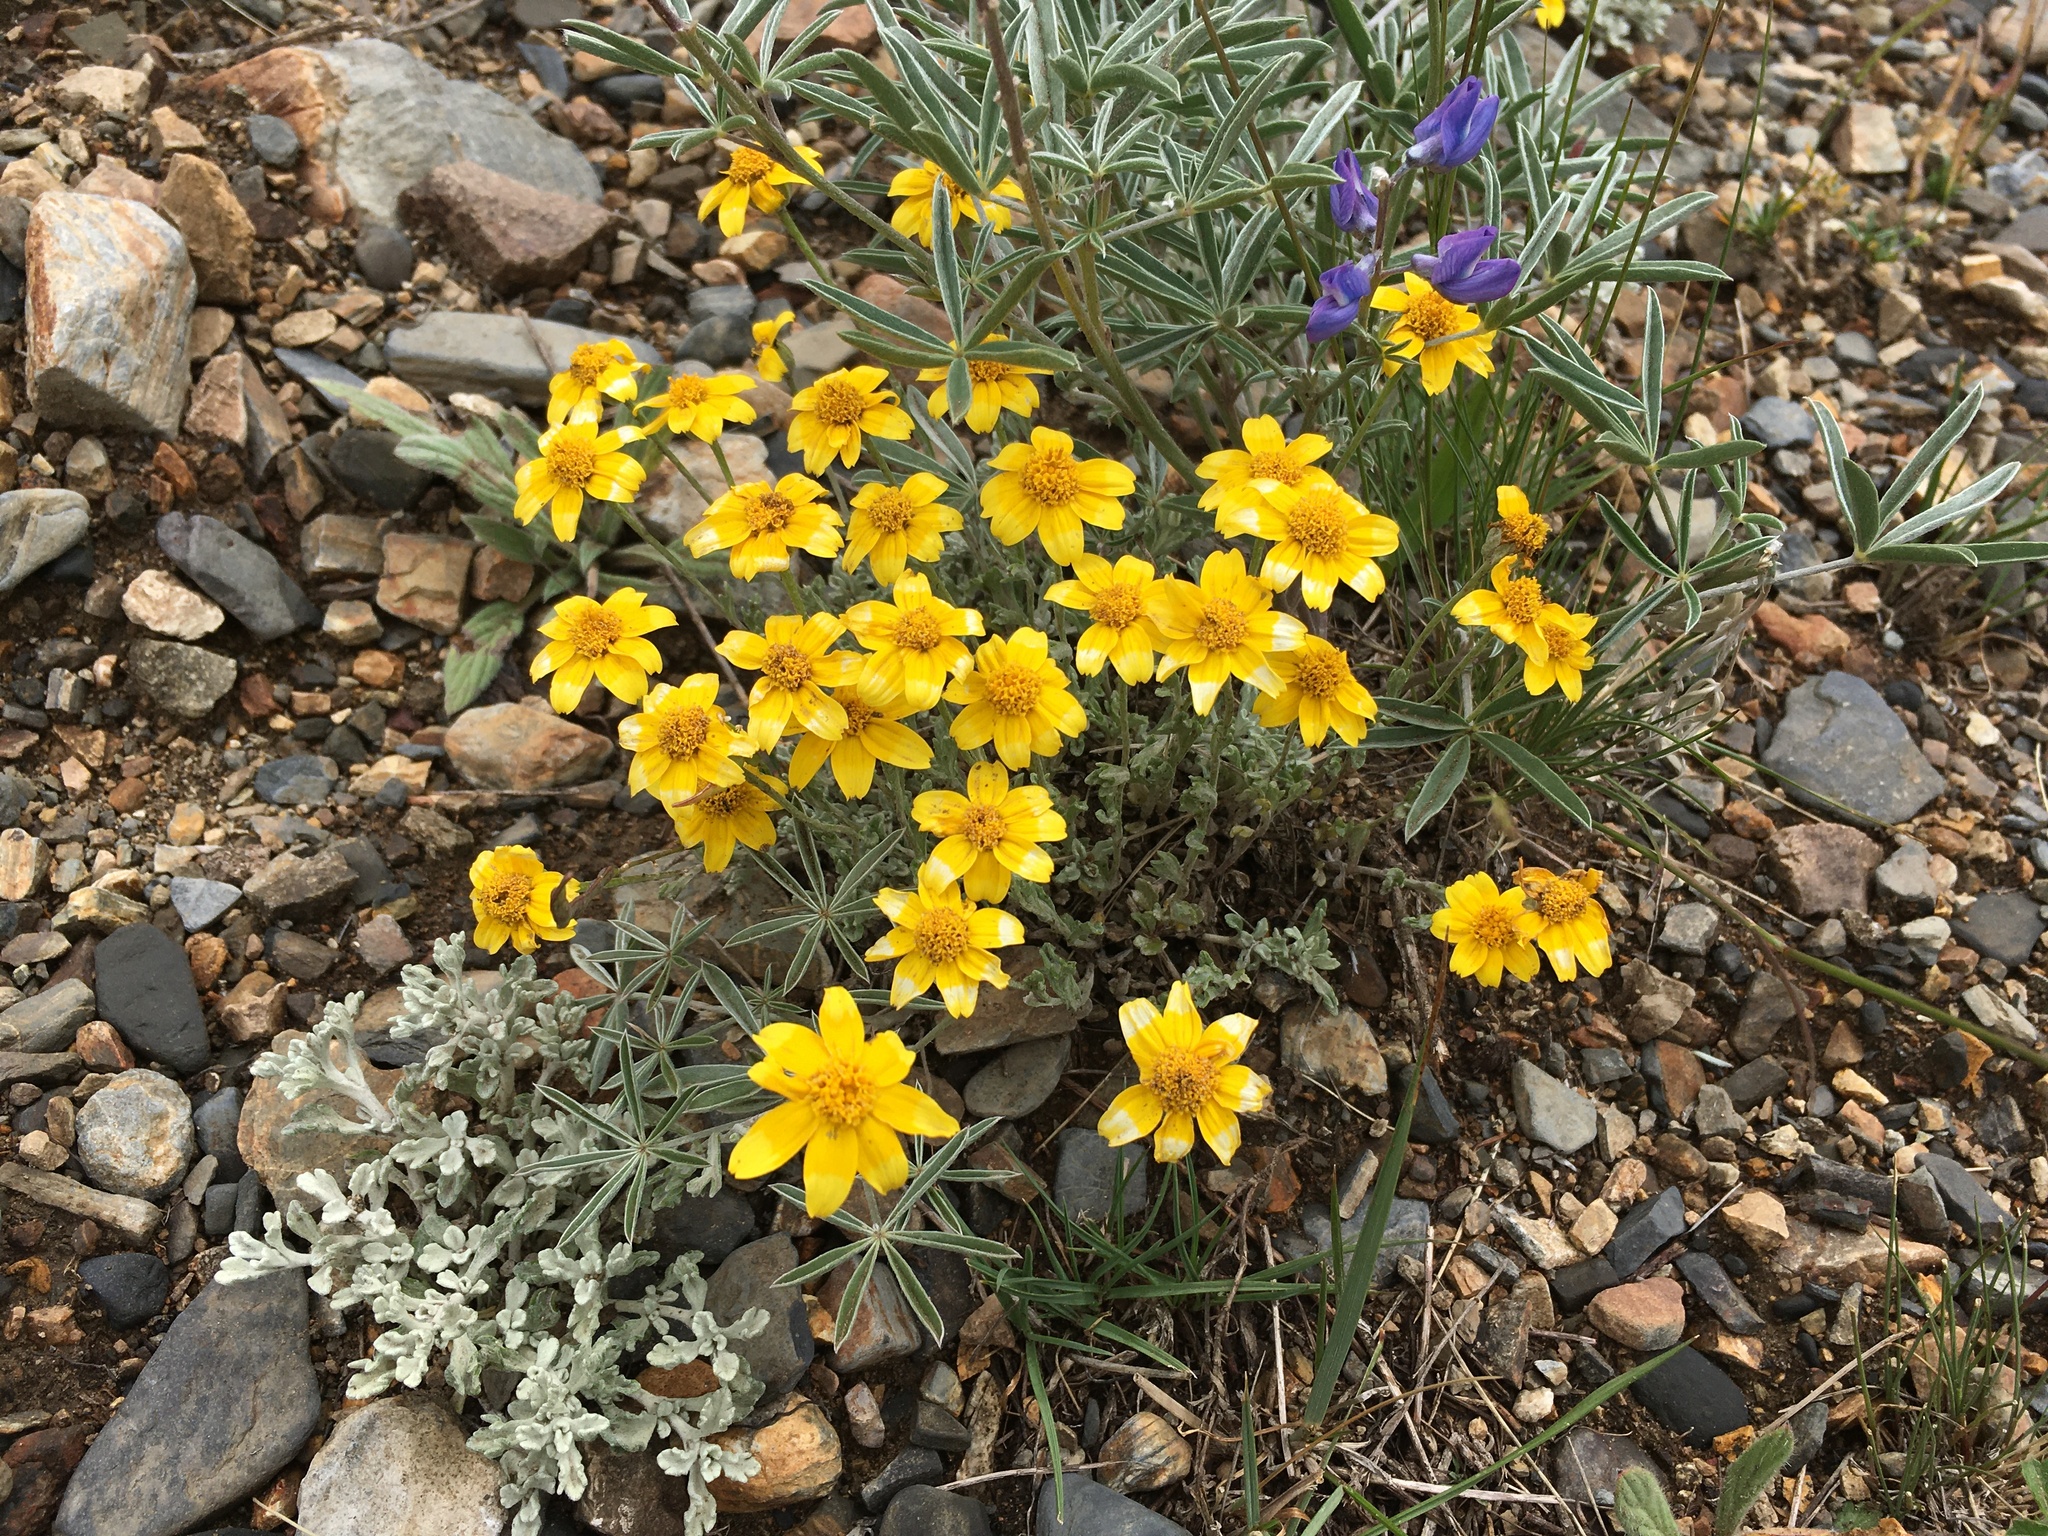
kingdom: Plantae
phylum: Tracheophyta
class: Magnoliopsida
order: Asterales
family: Asteraceae
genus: Eriophyllum
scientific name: Eriophyllum lanatum
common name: Common woolly-sunflower
